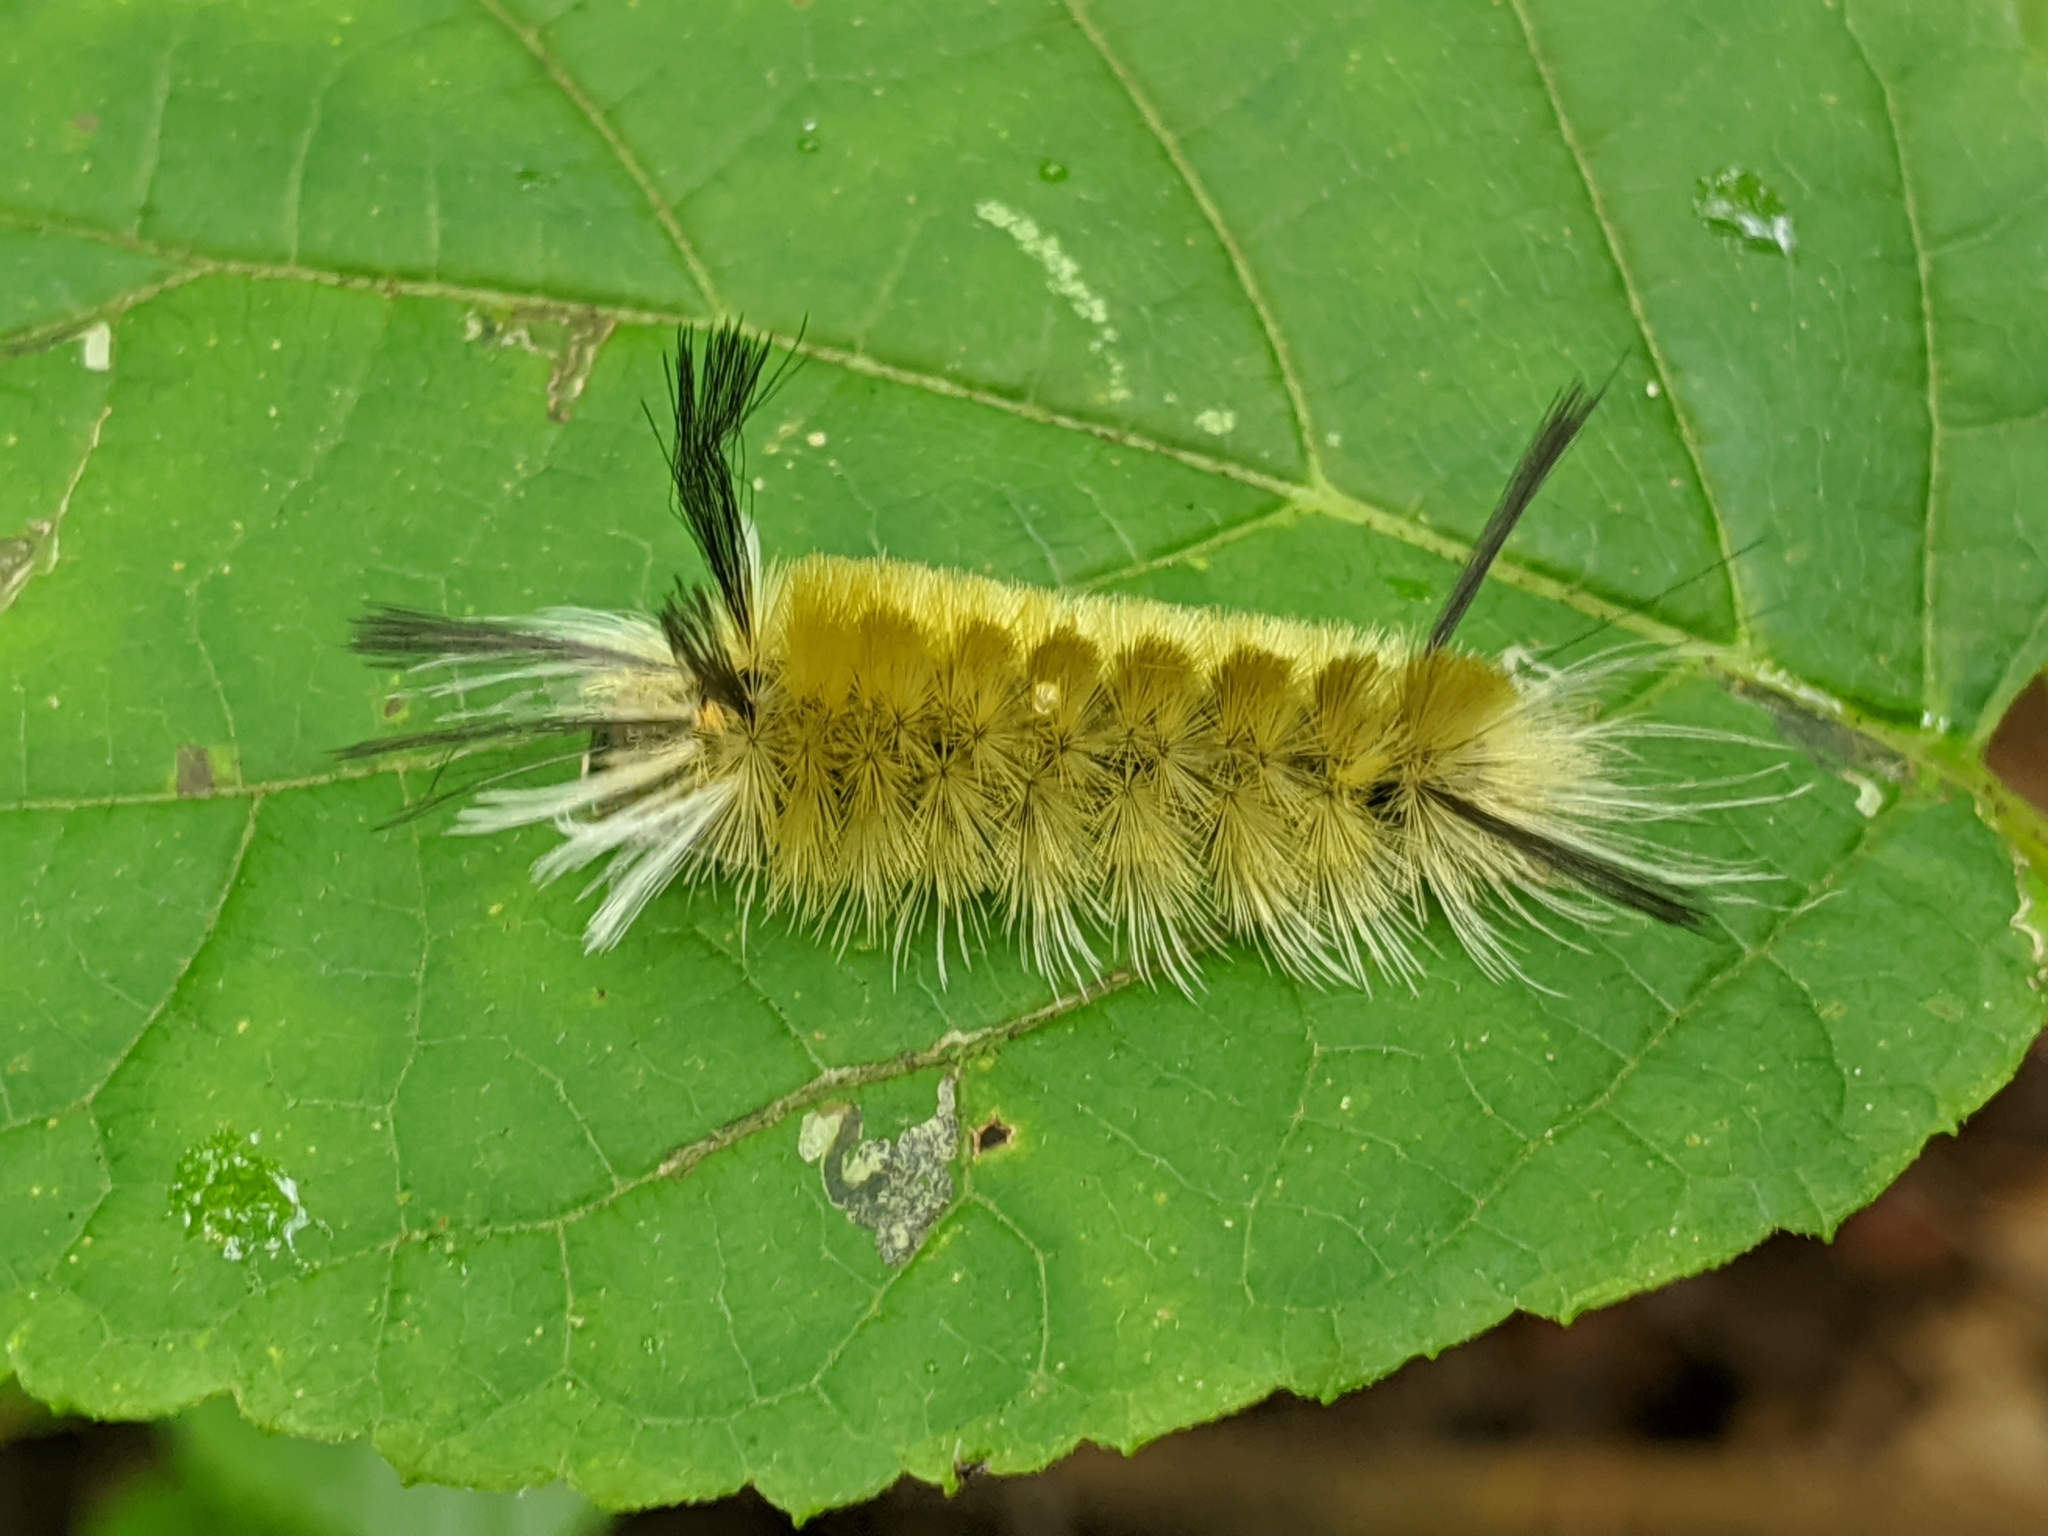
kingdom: Animalia
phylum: Arthropoda
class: Insecta
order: Lepidoptera
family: Erebidae
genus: Halysidota
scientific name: Halysidota tessellaris
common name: Banded tussock moth
